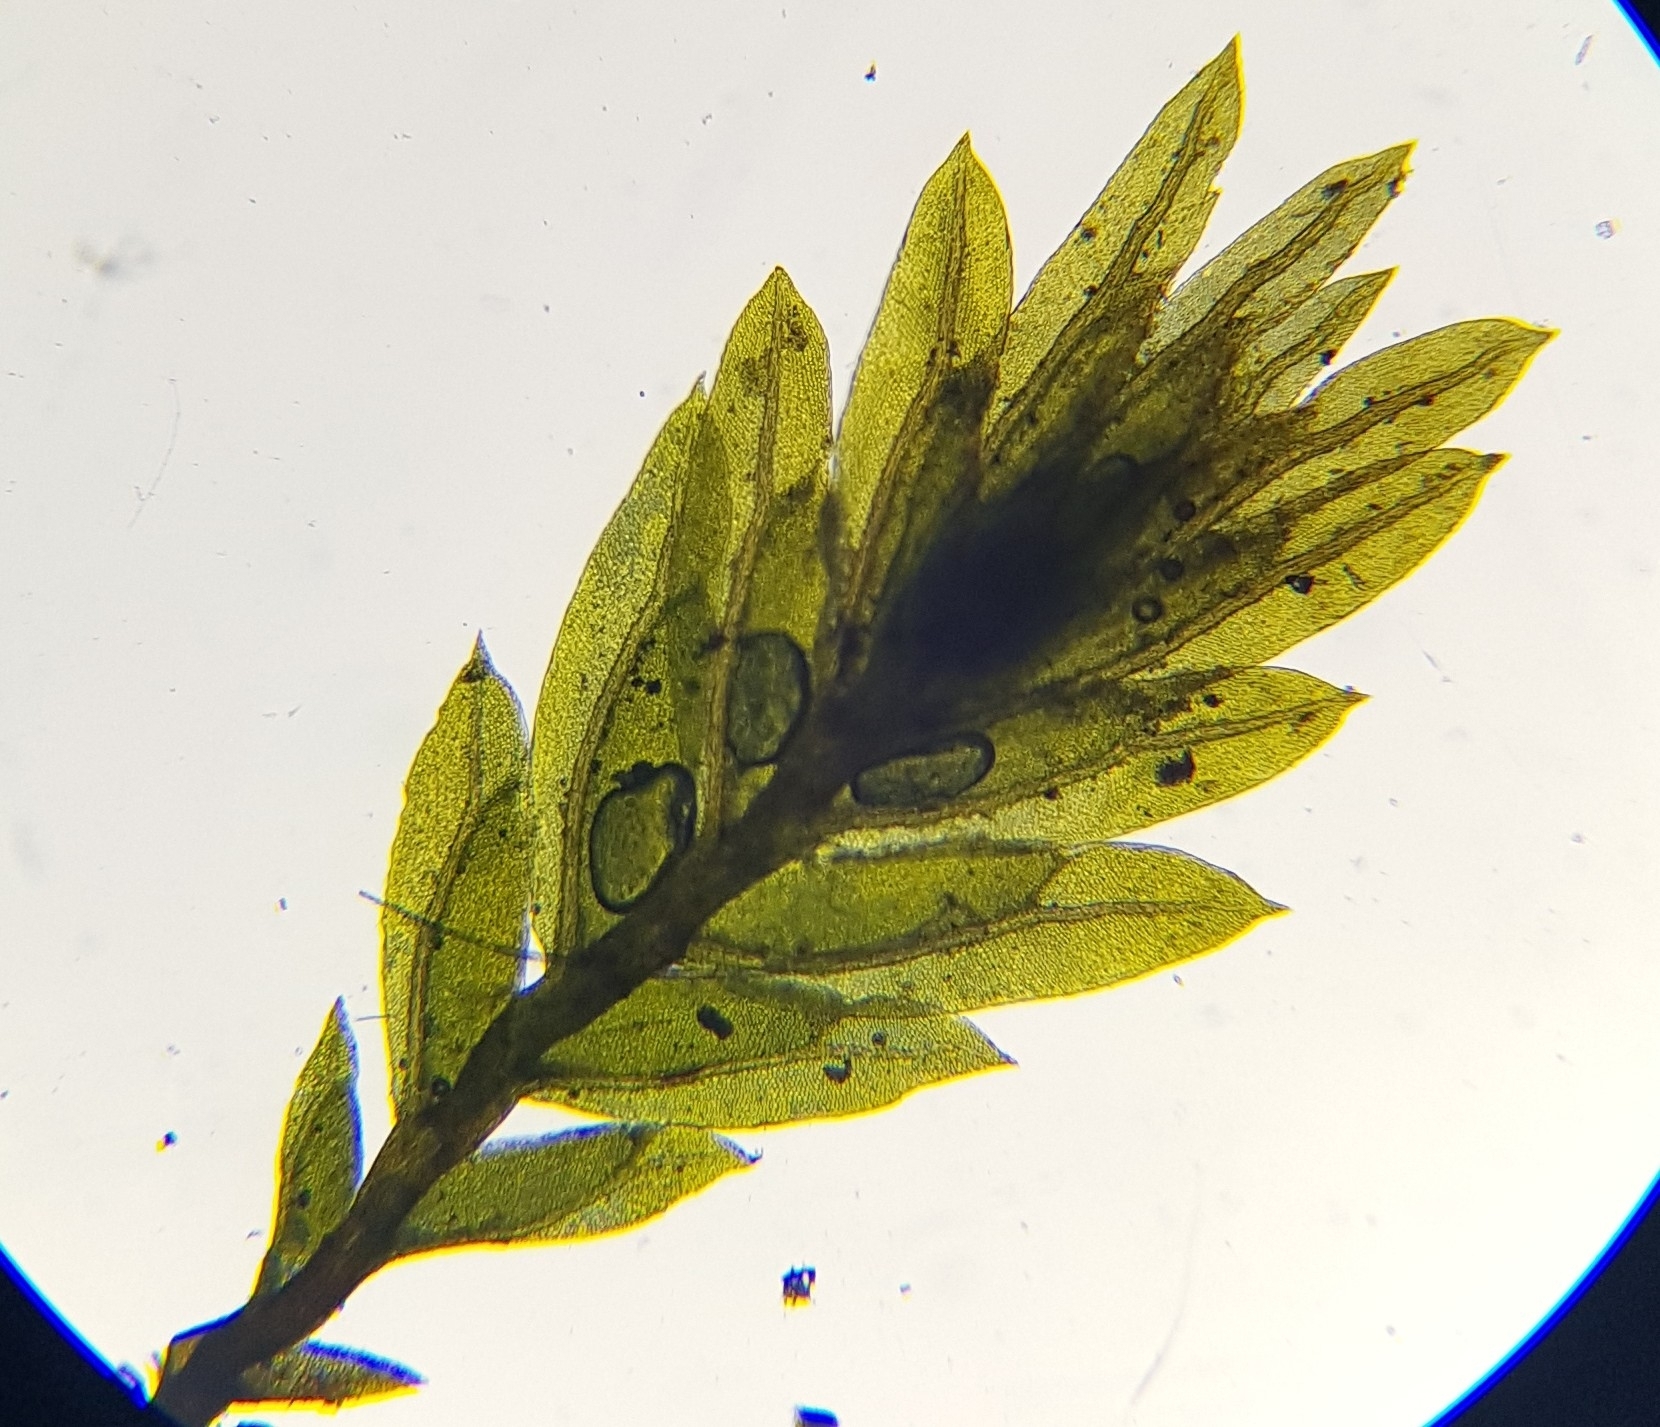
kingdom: Plantae
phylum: Bryophyta
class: Bryopsida
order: Dicranales
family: Fissidentaceae
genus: Fissidens
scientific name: Fissidens viridulus
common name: Green pocket-moss
